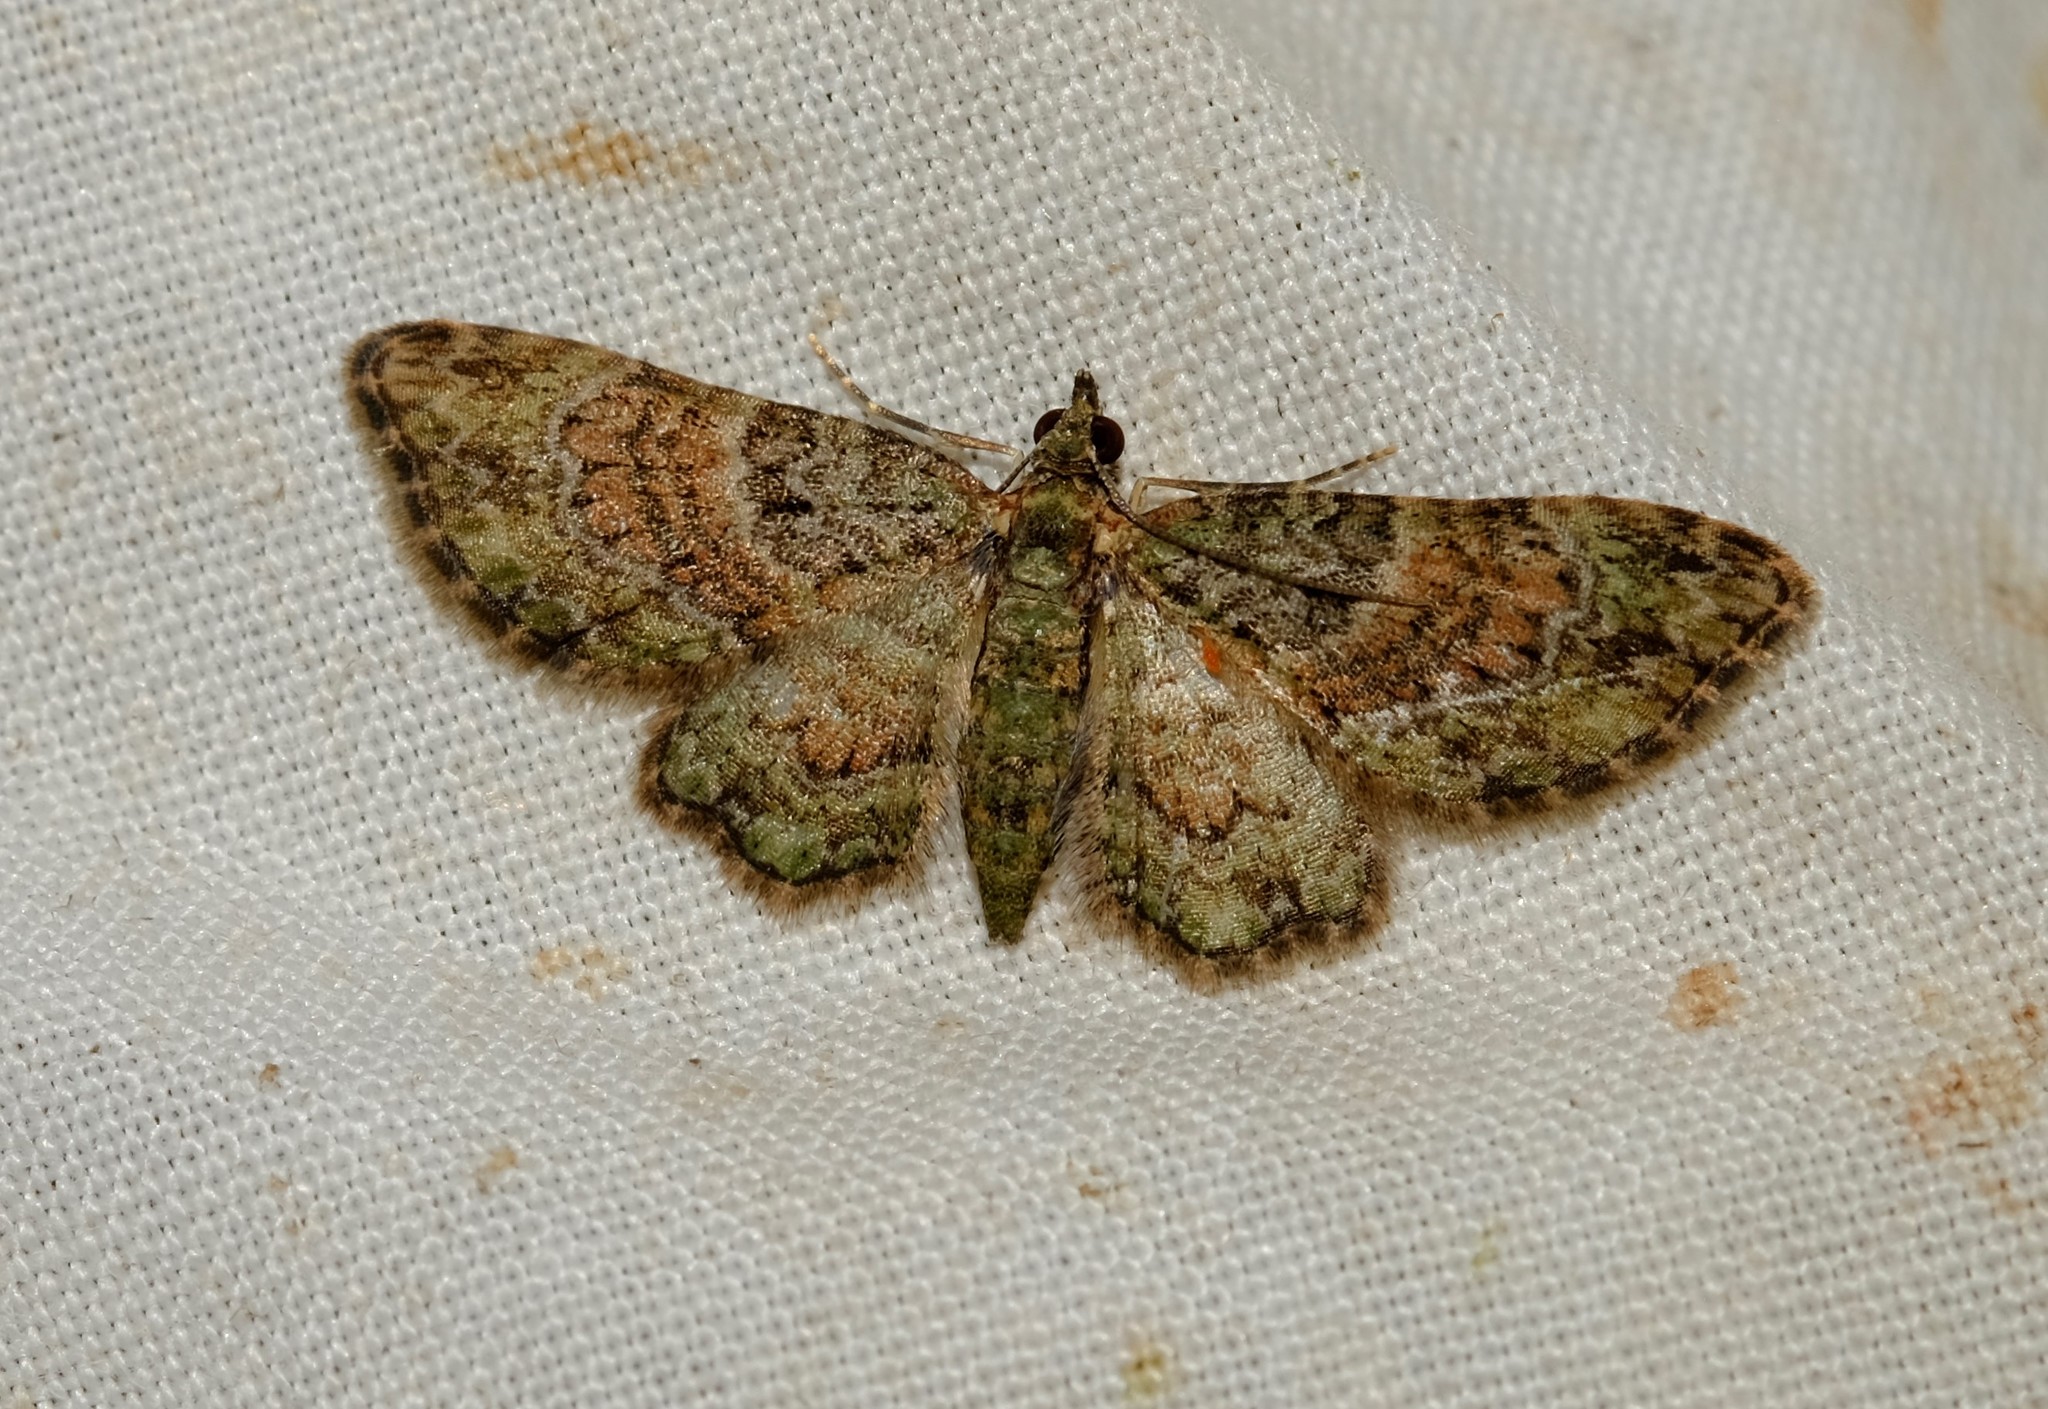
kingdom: Animalia
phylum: Arthropoda
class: Insecta
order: Lepidoptera
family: Geometridae
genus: Chloroclystis
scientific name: Chloroclystis catastreptes
